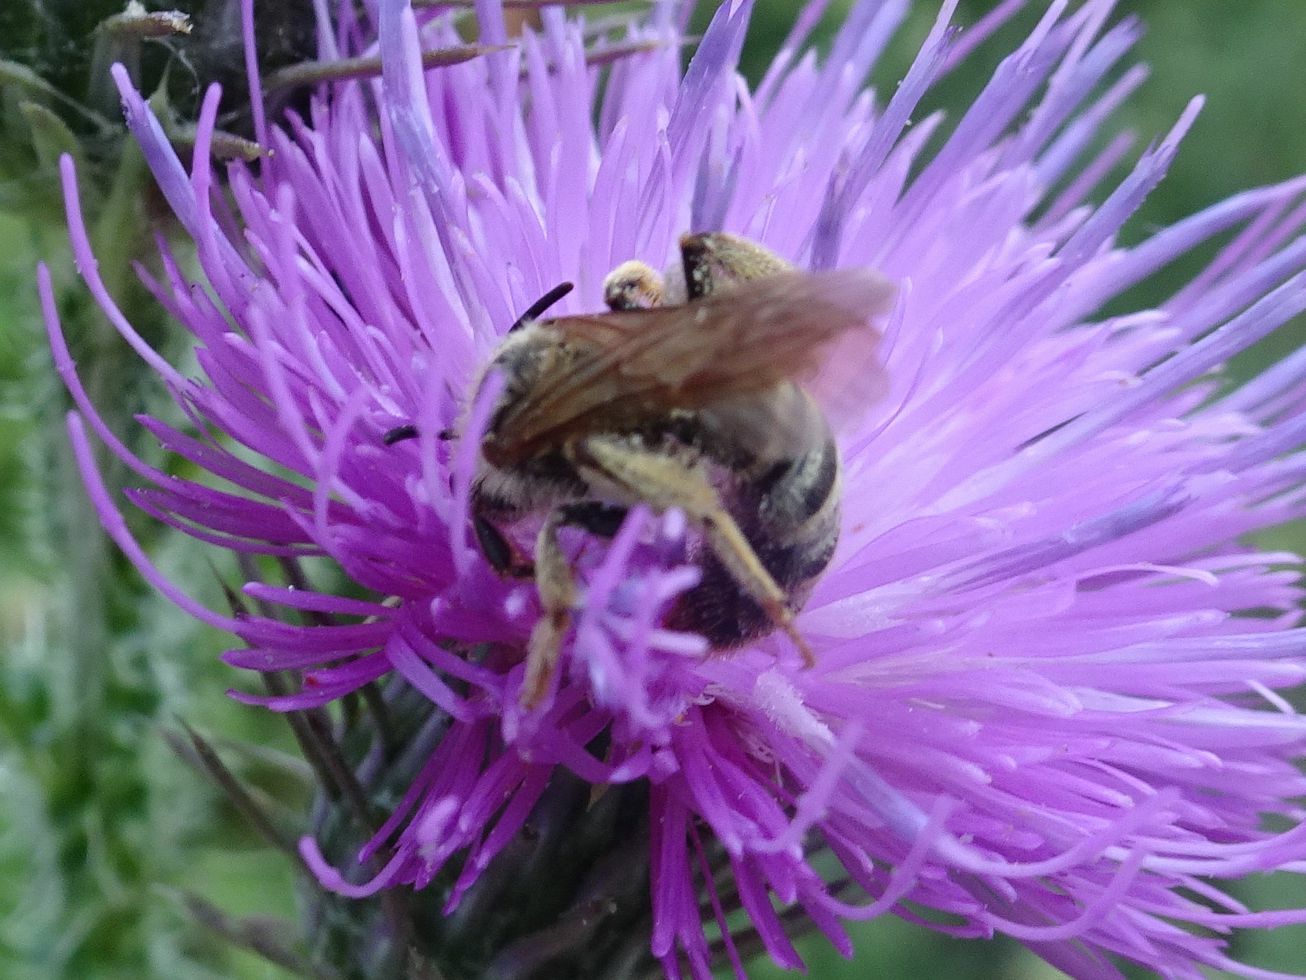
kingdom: Animalia
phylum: Arthropoda
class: Insecta
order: Hymenoptera
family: Halictidae
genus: Halictus
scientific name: Halictus scabiosae
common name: Great banded furrow bee
